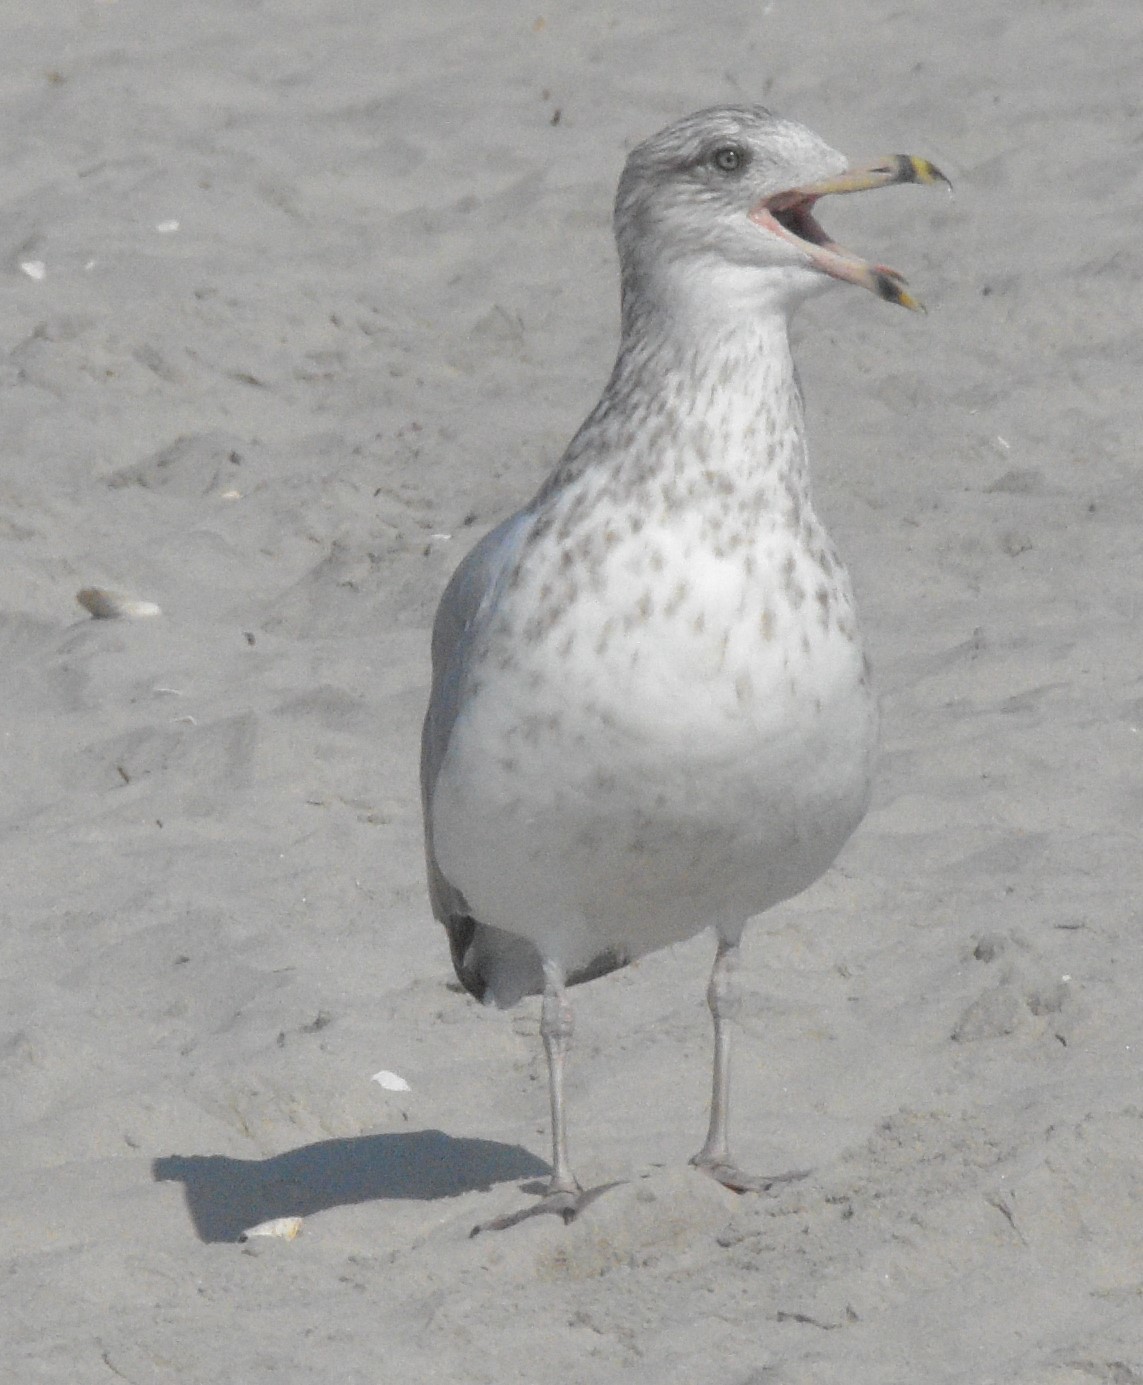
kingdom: Animalia
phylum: Chordata
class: Aves
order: Charadriiformes
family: Laridae
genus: Larus
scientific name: Larus delawarensis
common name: Ring-billed gull
